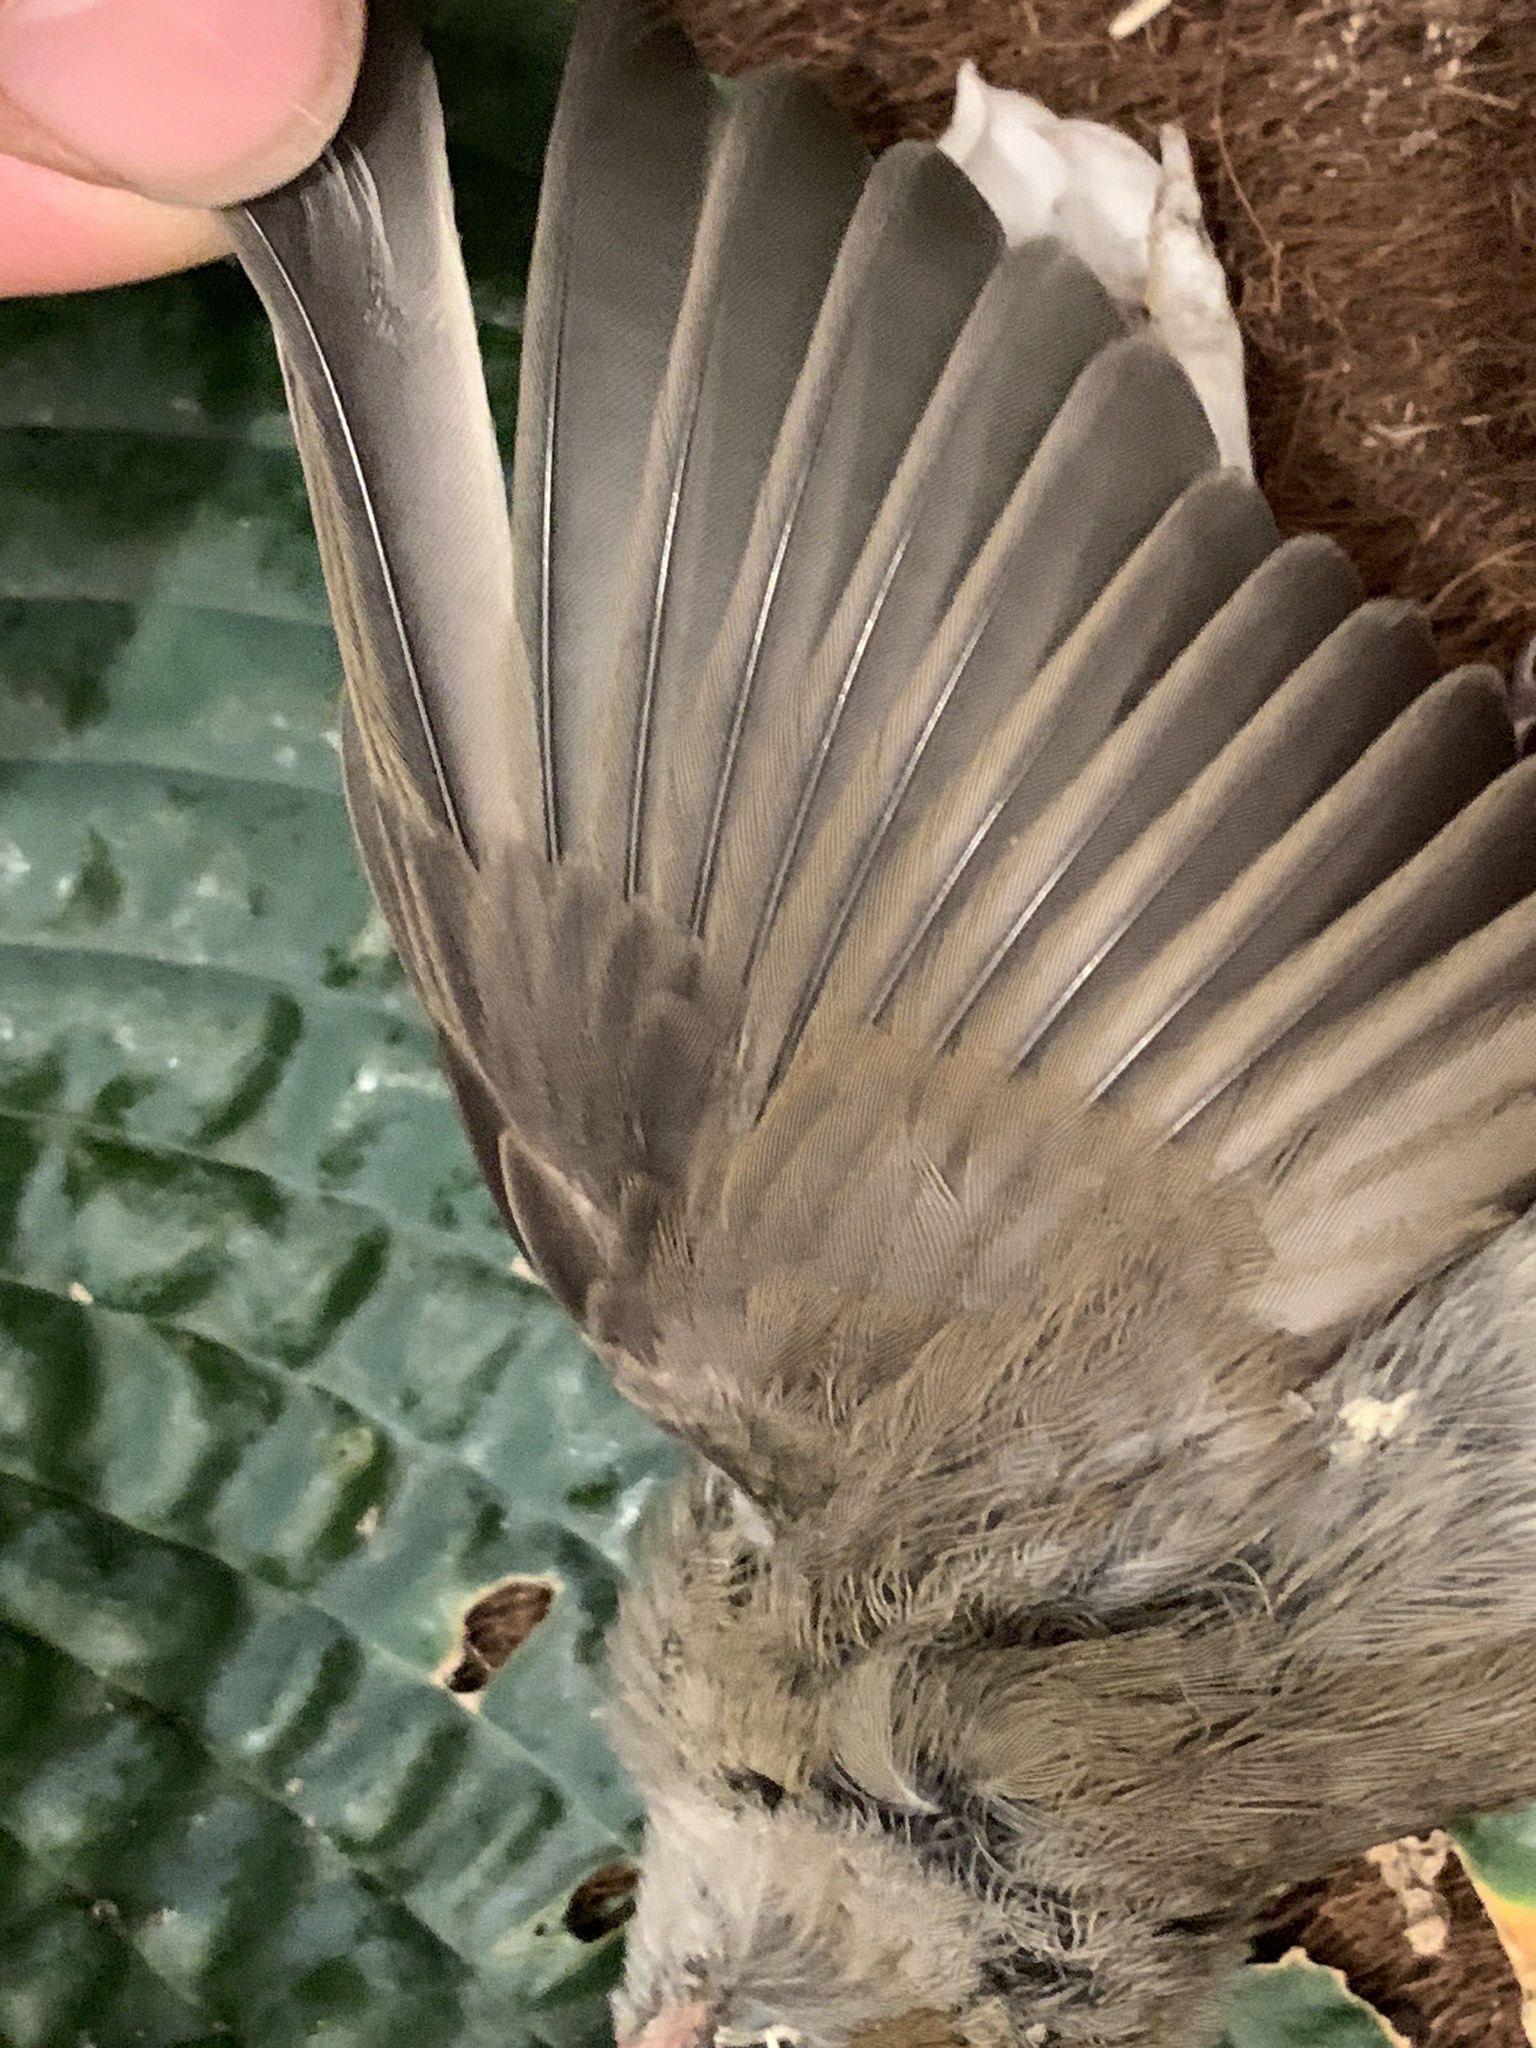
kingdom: Animalia
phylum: Chordata
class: Aves
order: Passeriformes
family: Sylviidae
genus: Sylvia
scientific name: Sylvia atricapilla
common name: Eurasian blackcap
